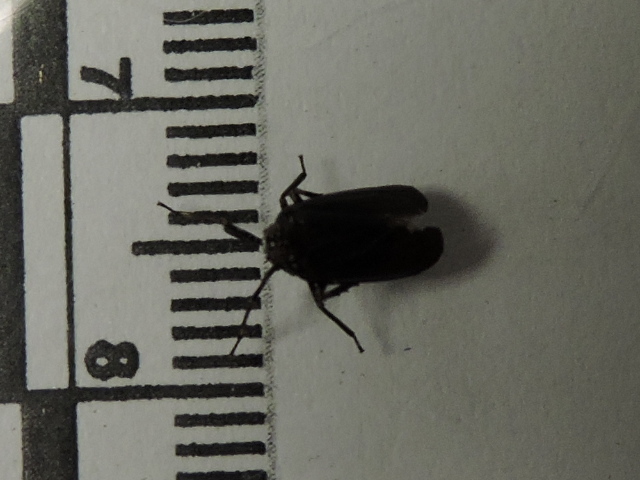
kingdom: Animalia
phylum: Arthropoda
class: Insecta
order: Hemiptera
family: Achilidae
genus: Isodaemon
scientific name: Isodaemon orontes
